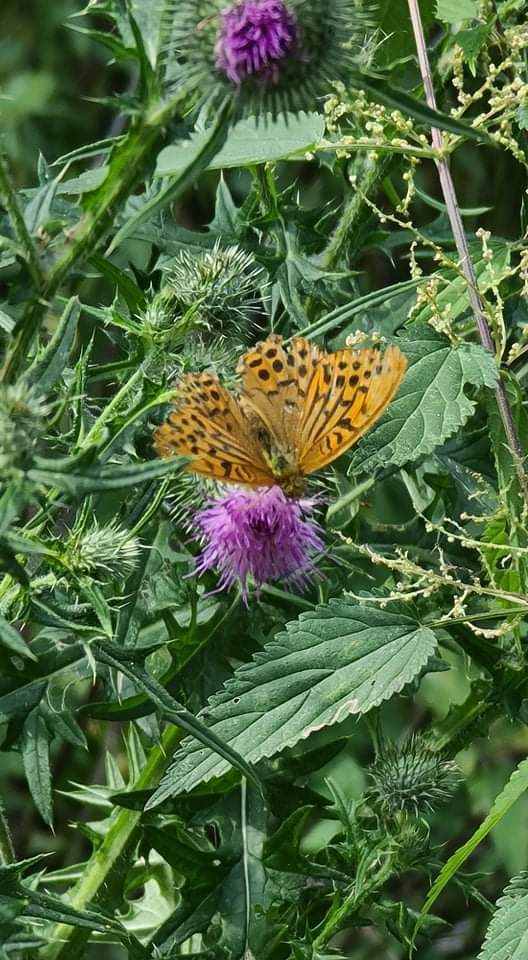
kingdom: Animalia
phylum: Arthropoda
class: Insecta
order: Lepidoptera
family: Nymphalidae
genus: Argynnis
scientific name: Argynnis paphia
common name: Silver-washed fritillary
